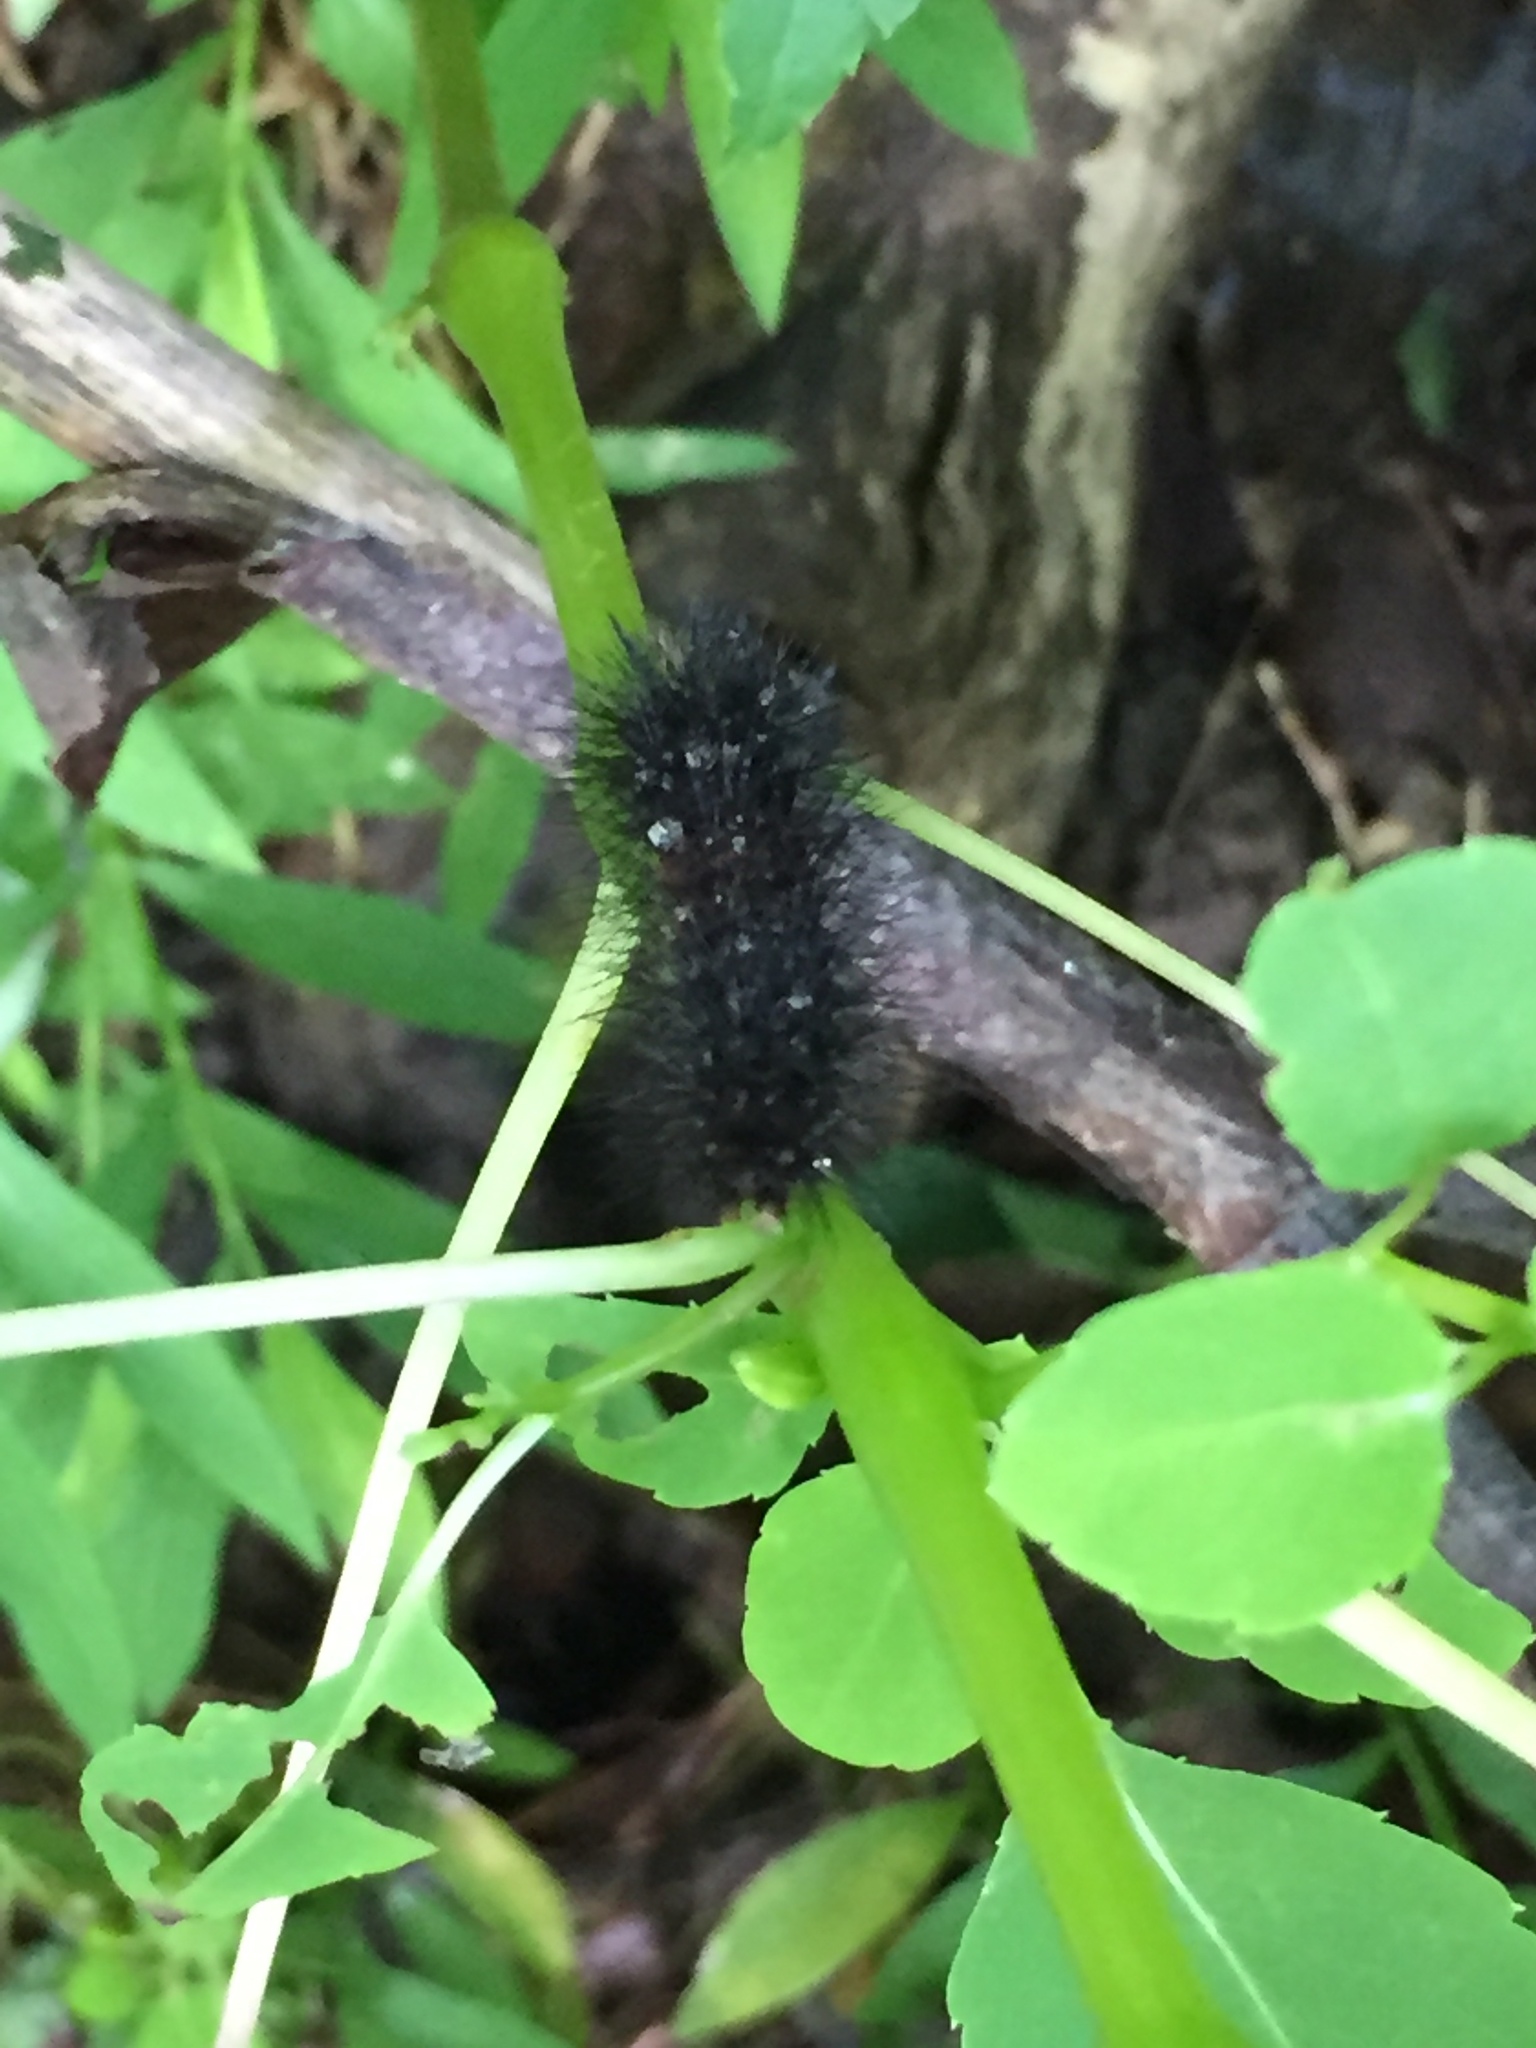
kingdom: Animalia
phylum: Arthropoda
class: Insecta
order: Lepidoptera
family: Erebidae
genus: Hypercompe
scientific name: Hypercompe scribonia
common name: Giant leopard moth
